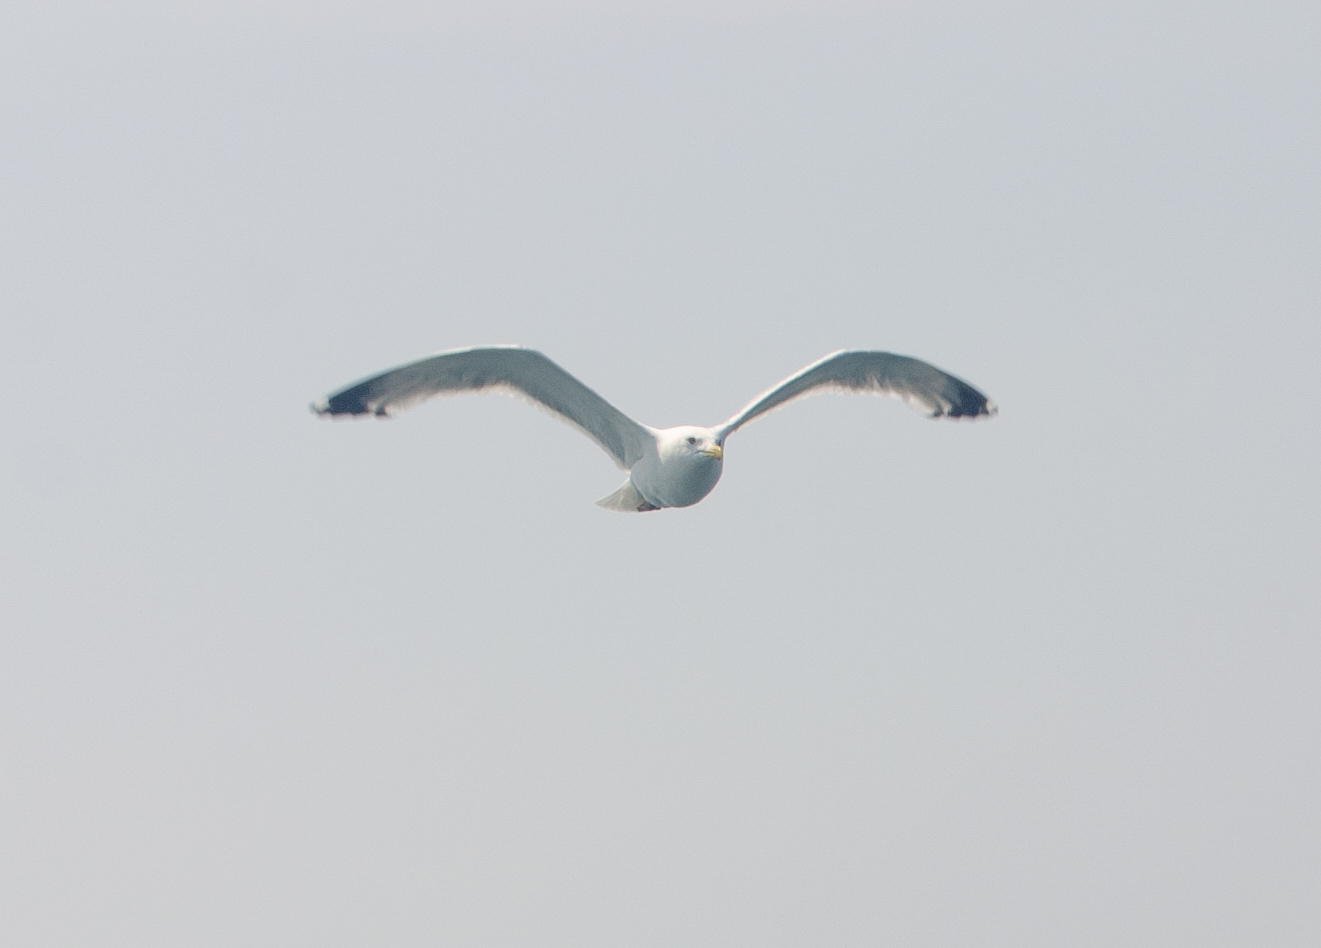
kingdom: Animalia
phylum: Chordata
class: Aves
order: Charadriiformes
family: Laridae
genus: Larus
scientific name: Larus argentatus
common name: Herring gull
